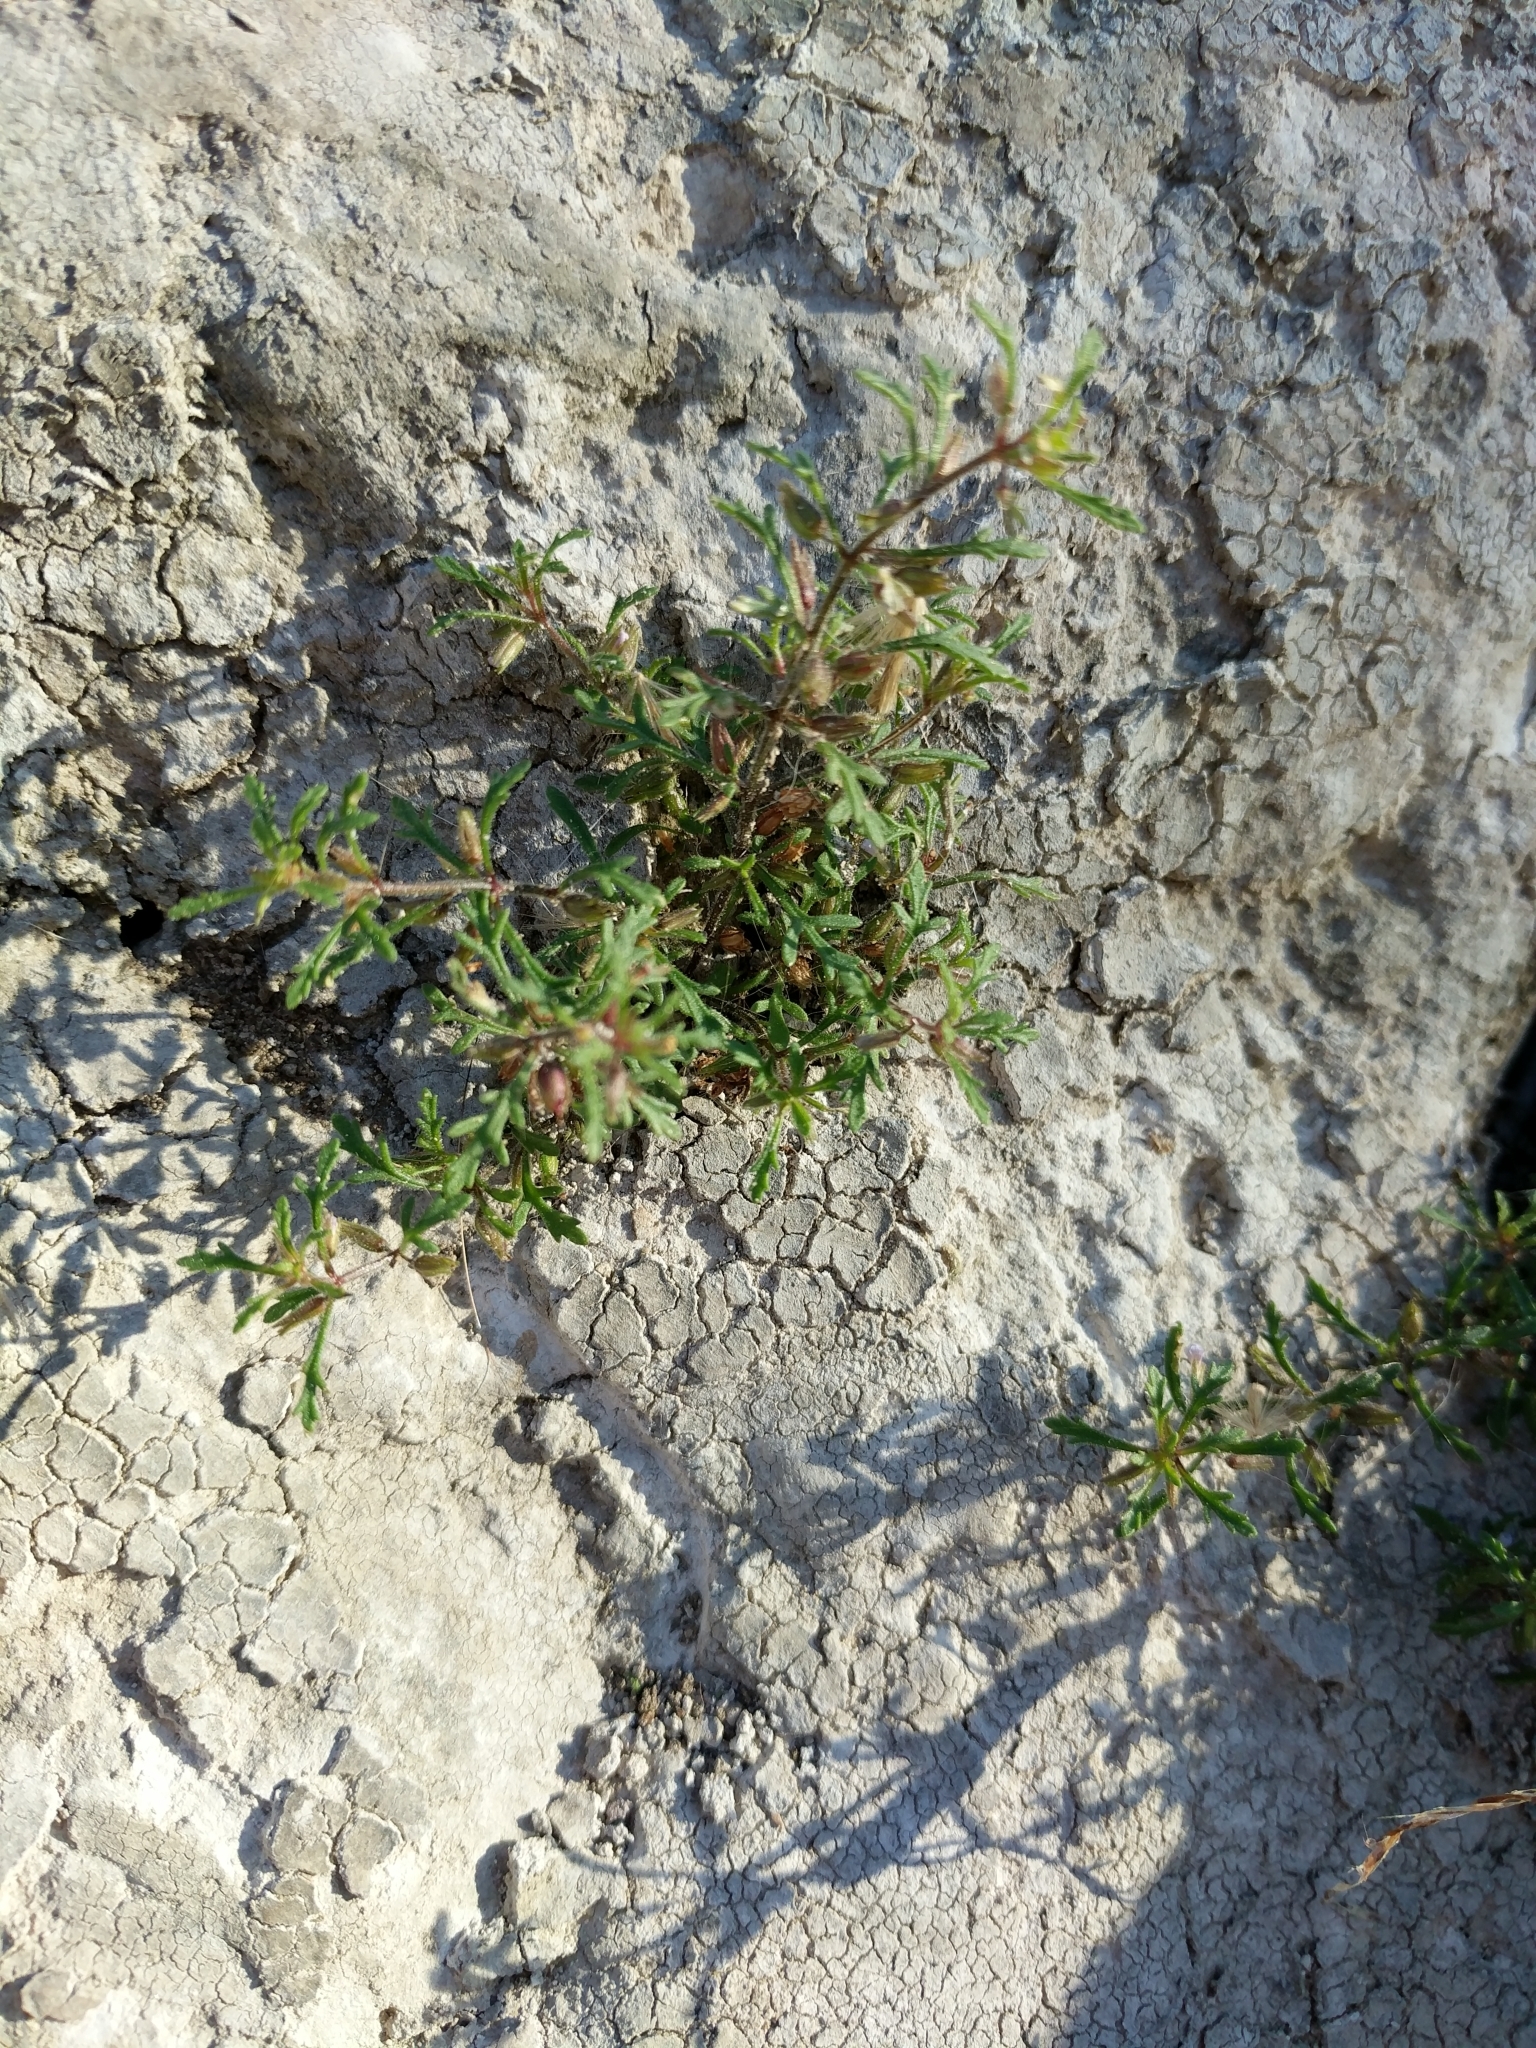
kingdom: Plantae
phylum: Tracheophyta
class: Magnoliopsida
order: Lamiales
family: Plantaginaceae
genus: Leucospora
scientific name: Leucospora multifida
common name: Narrow-leaf paleseed
